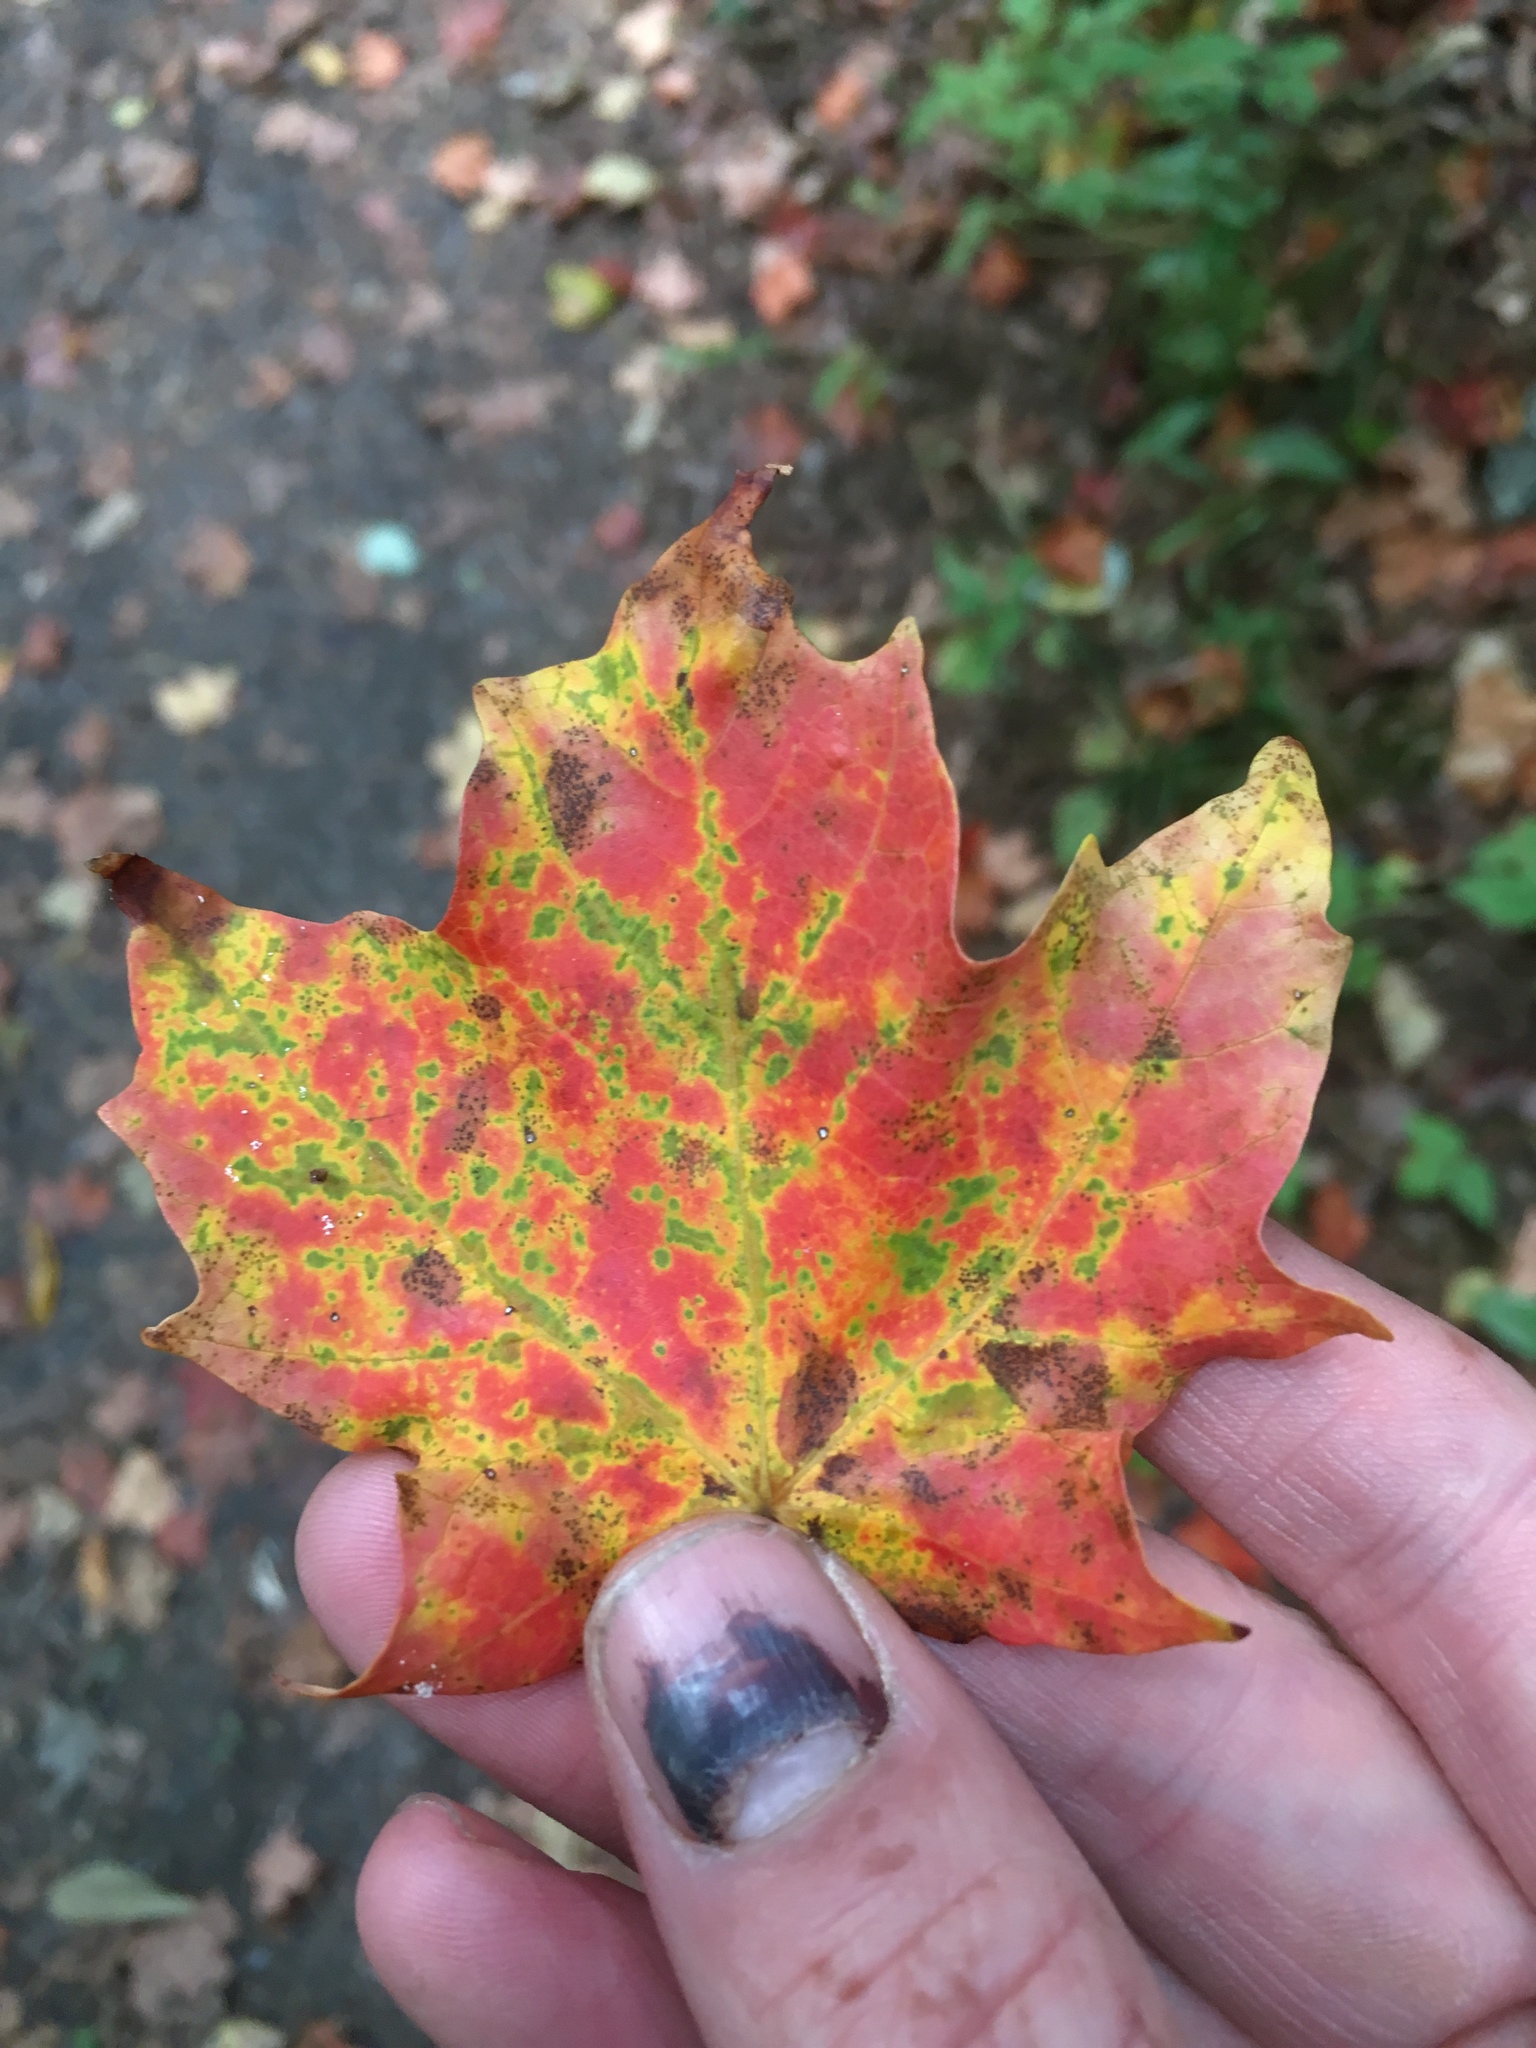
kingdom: Plantae
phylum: Tracheophyta
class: Magnoliopsida
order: Sapindales
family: Sapindaceae
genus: Acer
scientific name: Acer saccharum
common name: Sugar maple
